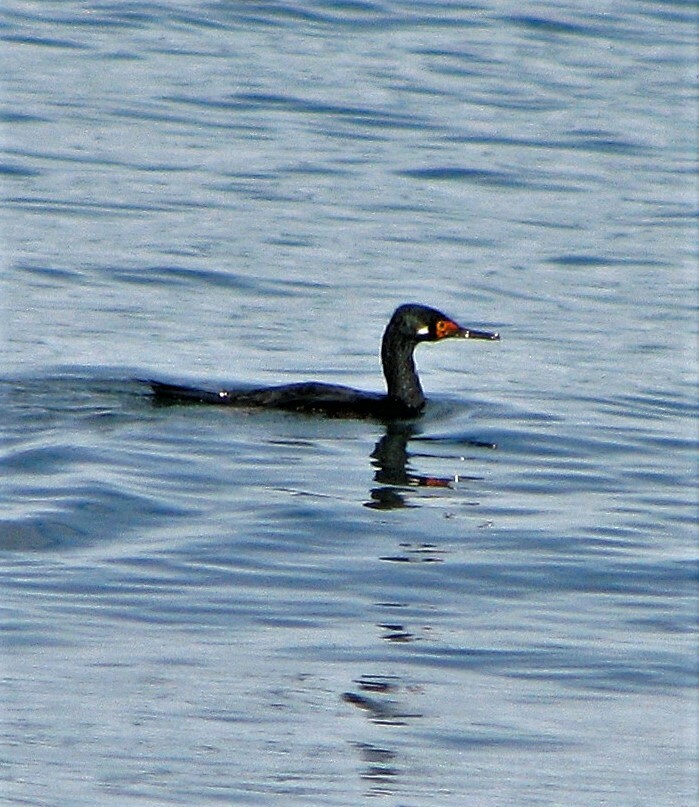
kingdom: Animalia
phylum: Chordata
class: Aves
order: Suliformes
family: Phalacrocoracidae
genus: Phalacrocorax
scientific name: Phalacrocorax magellanicus
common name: Rock shag
